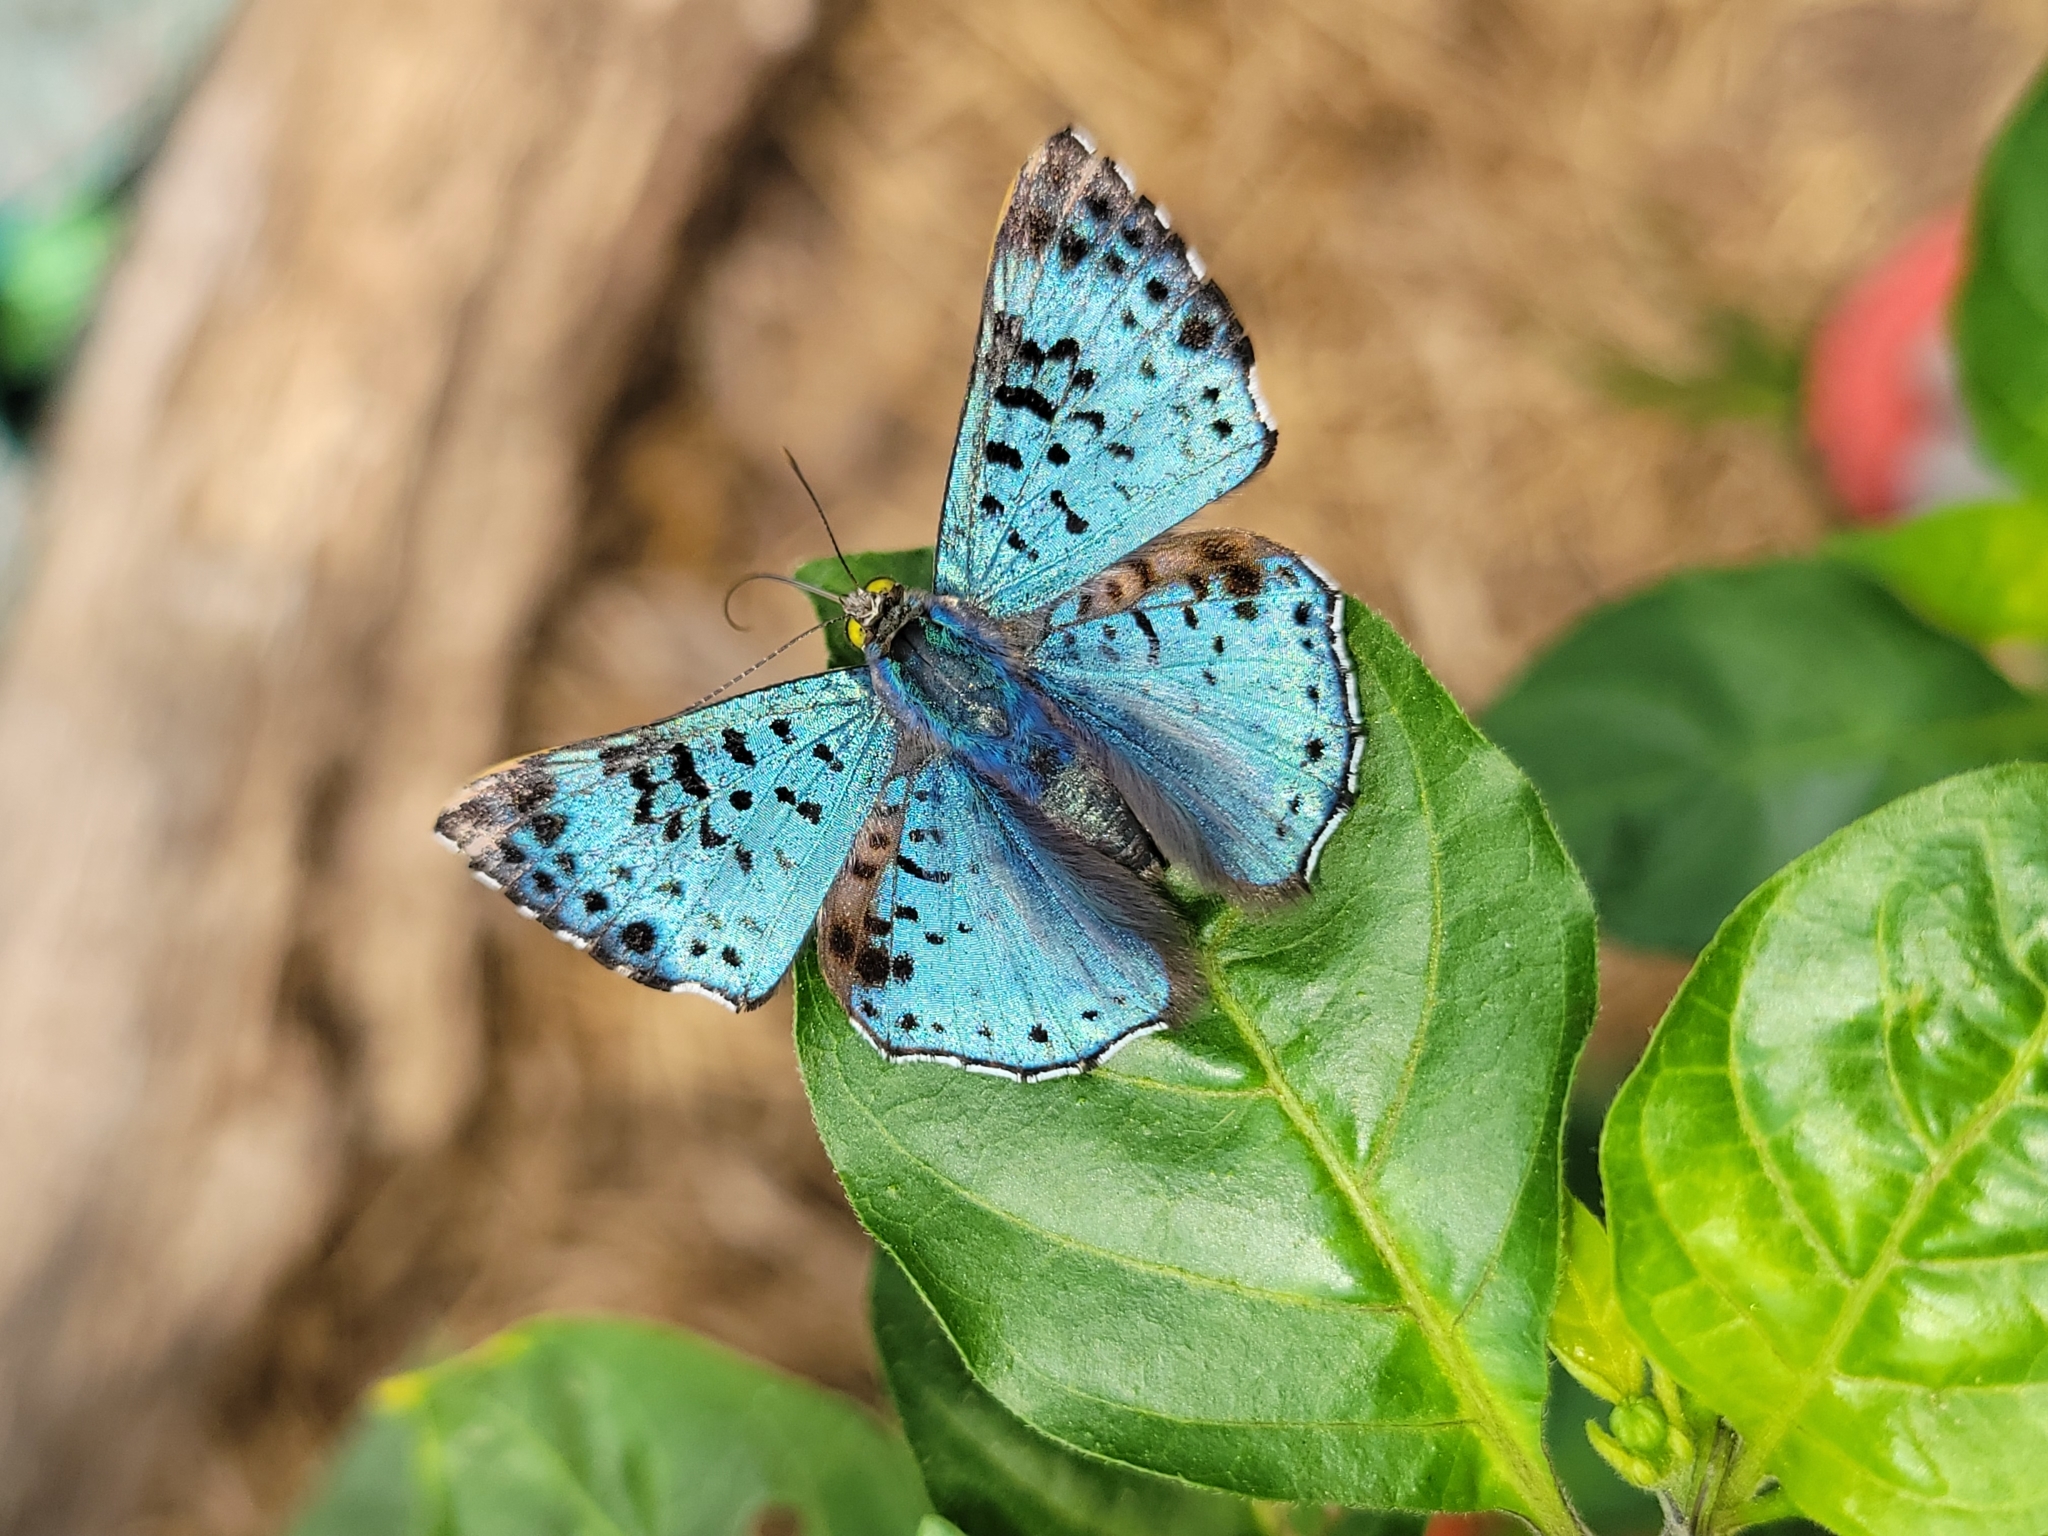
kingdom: Animalia
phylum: Arthropoda
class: Insecta
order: Lepidoptera
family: Riodinidae
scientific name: Riodinidae
